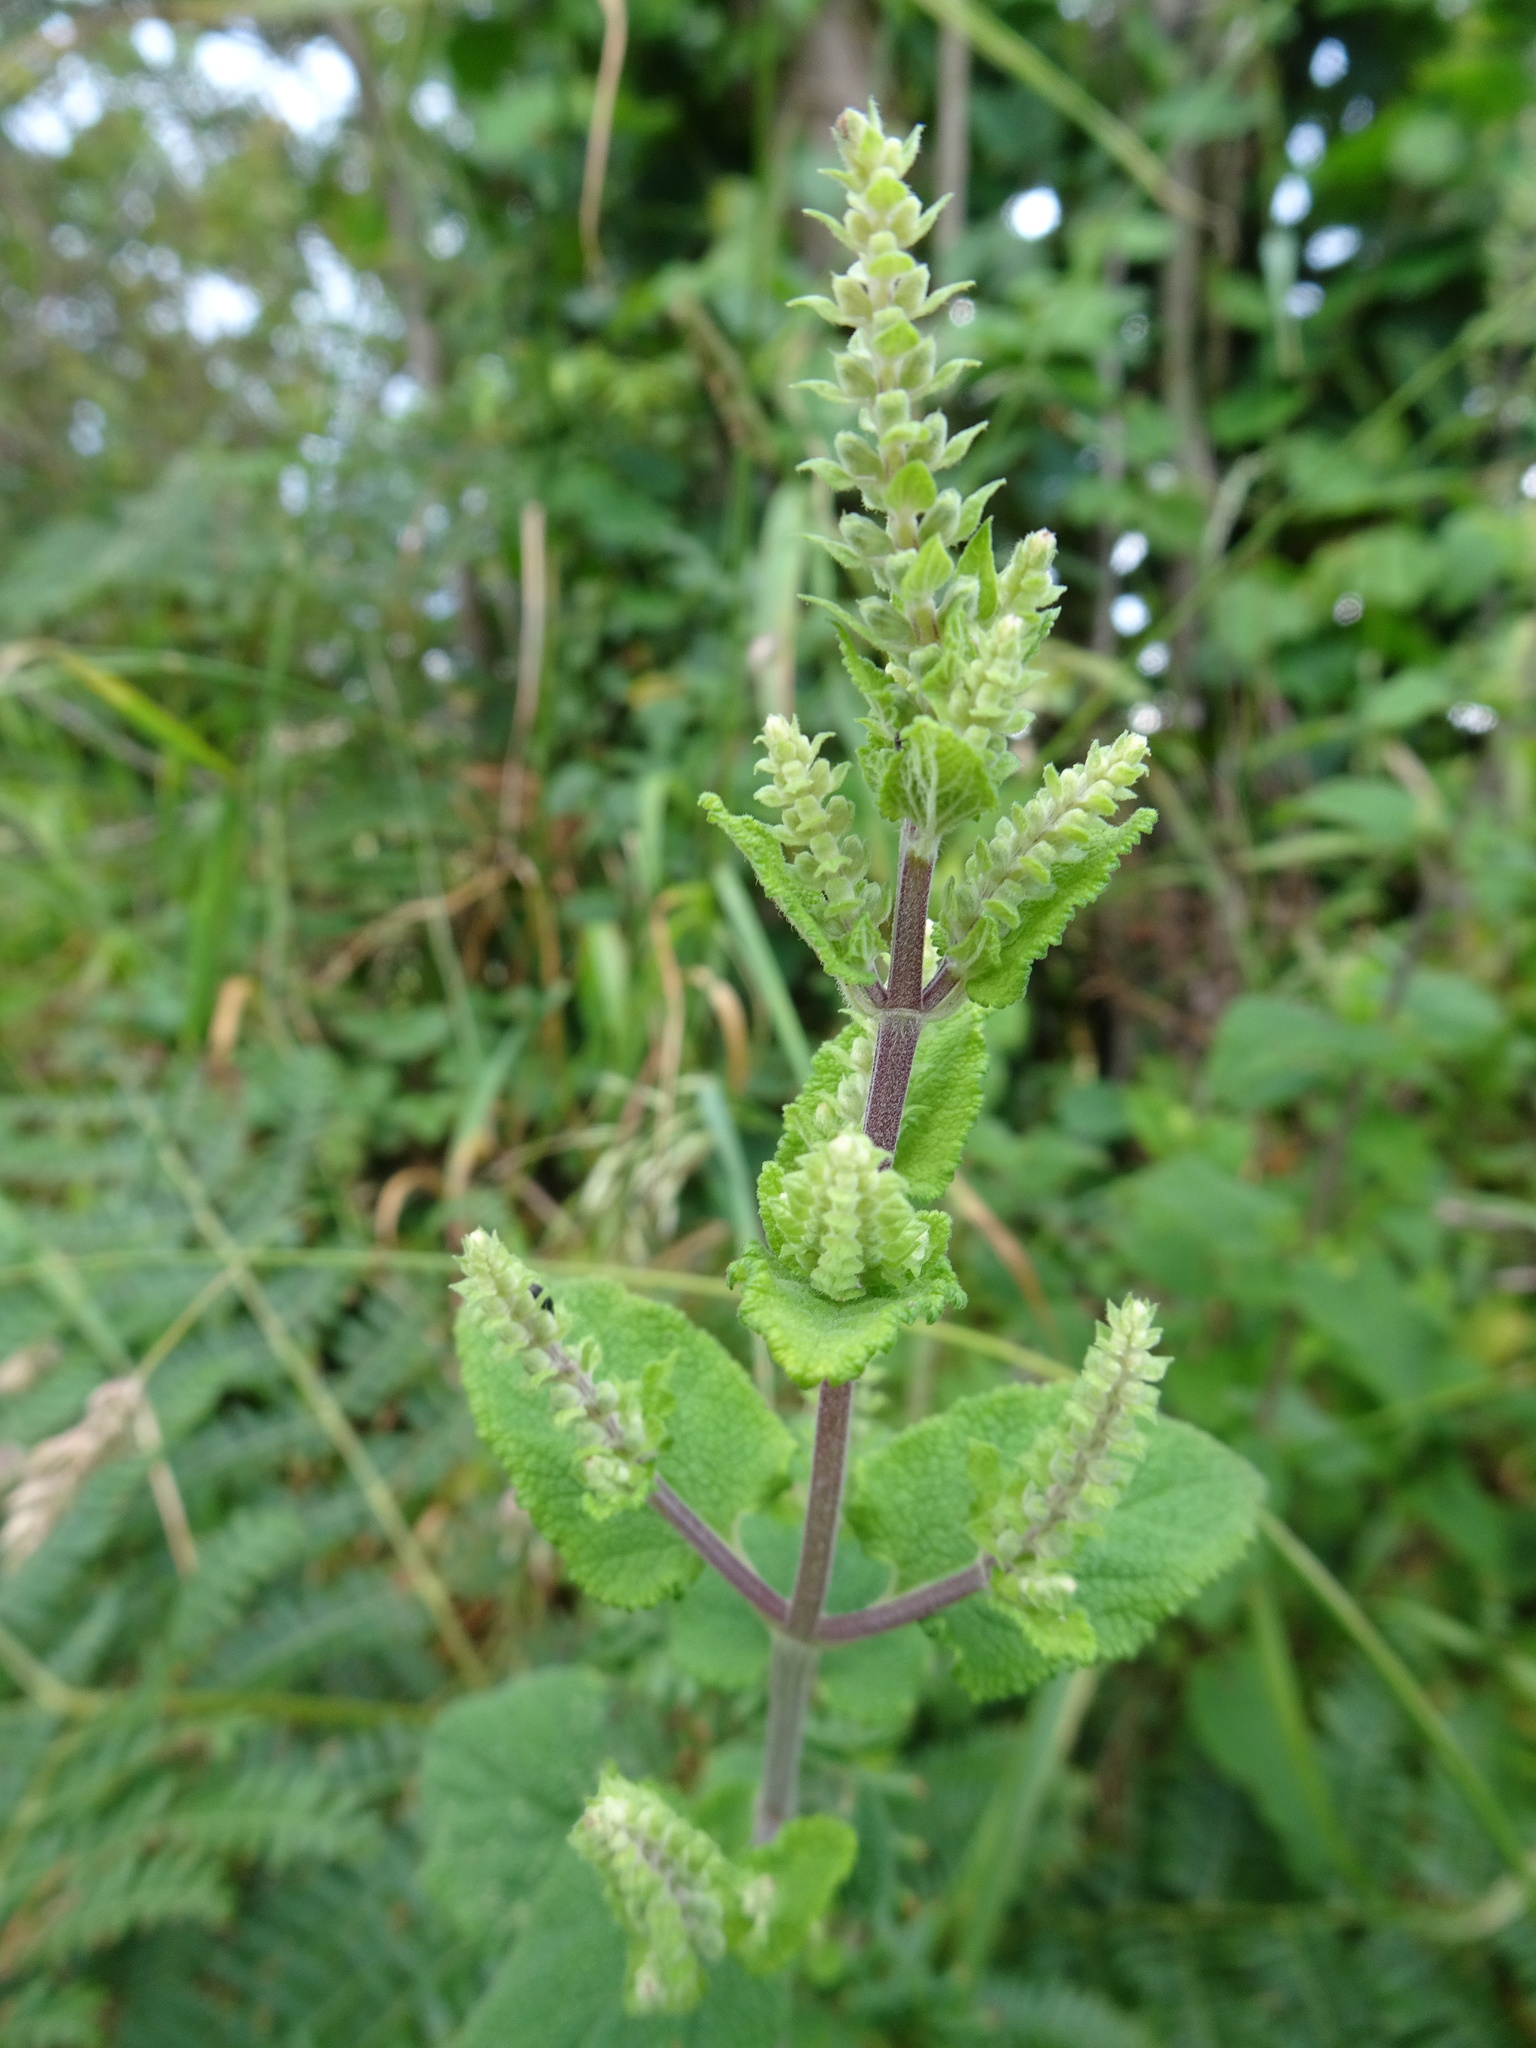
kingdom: Plantae
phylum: Tracheophyta
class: Magnoliopsida
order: Lamiales
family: Lamiaceae
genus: Teucrium
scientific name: Teucrium scorodonia
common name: Woodland germander
